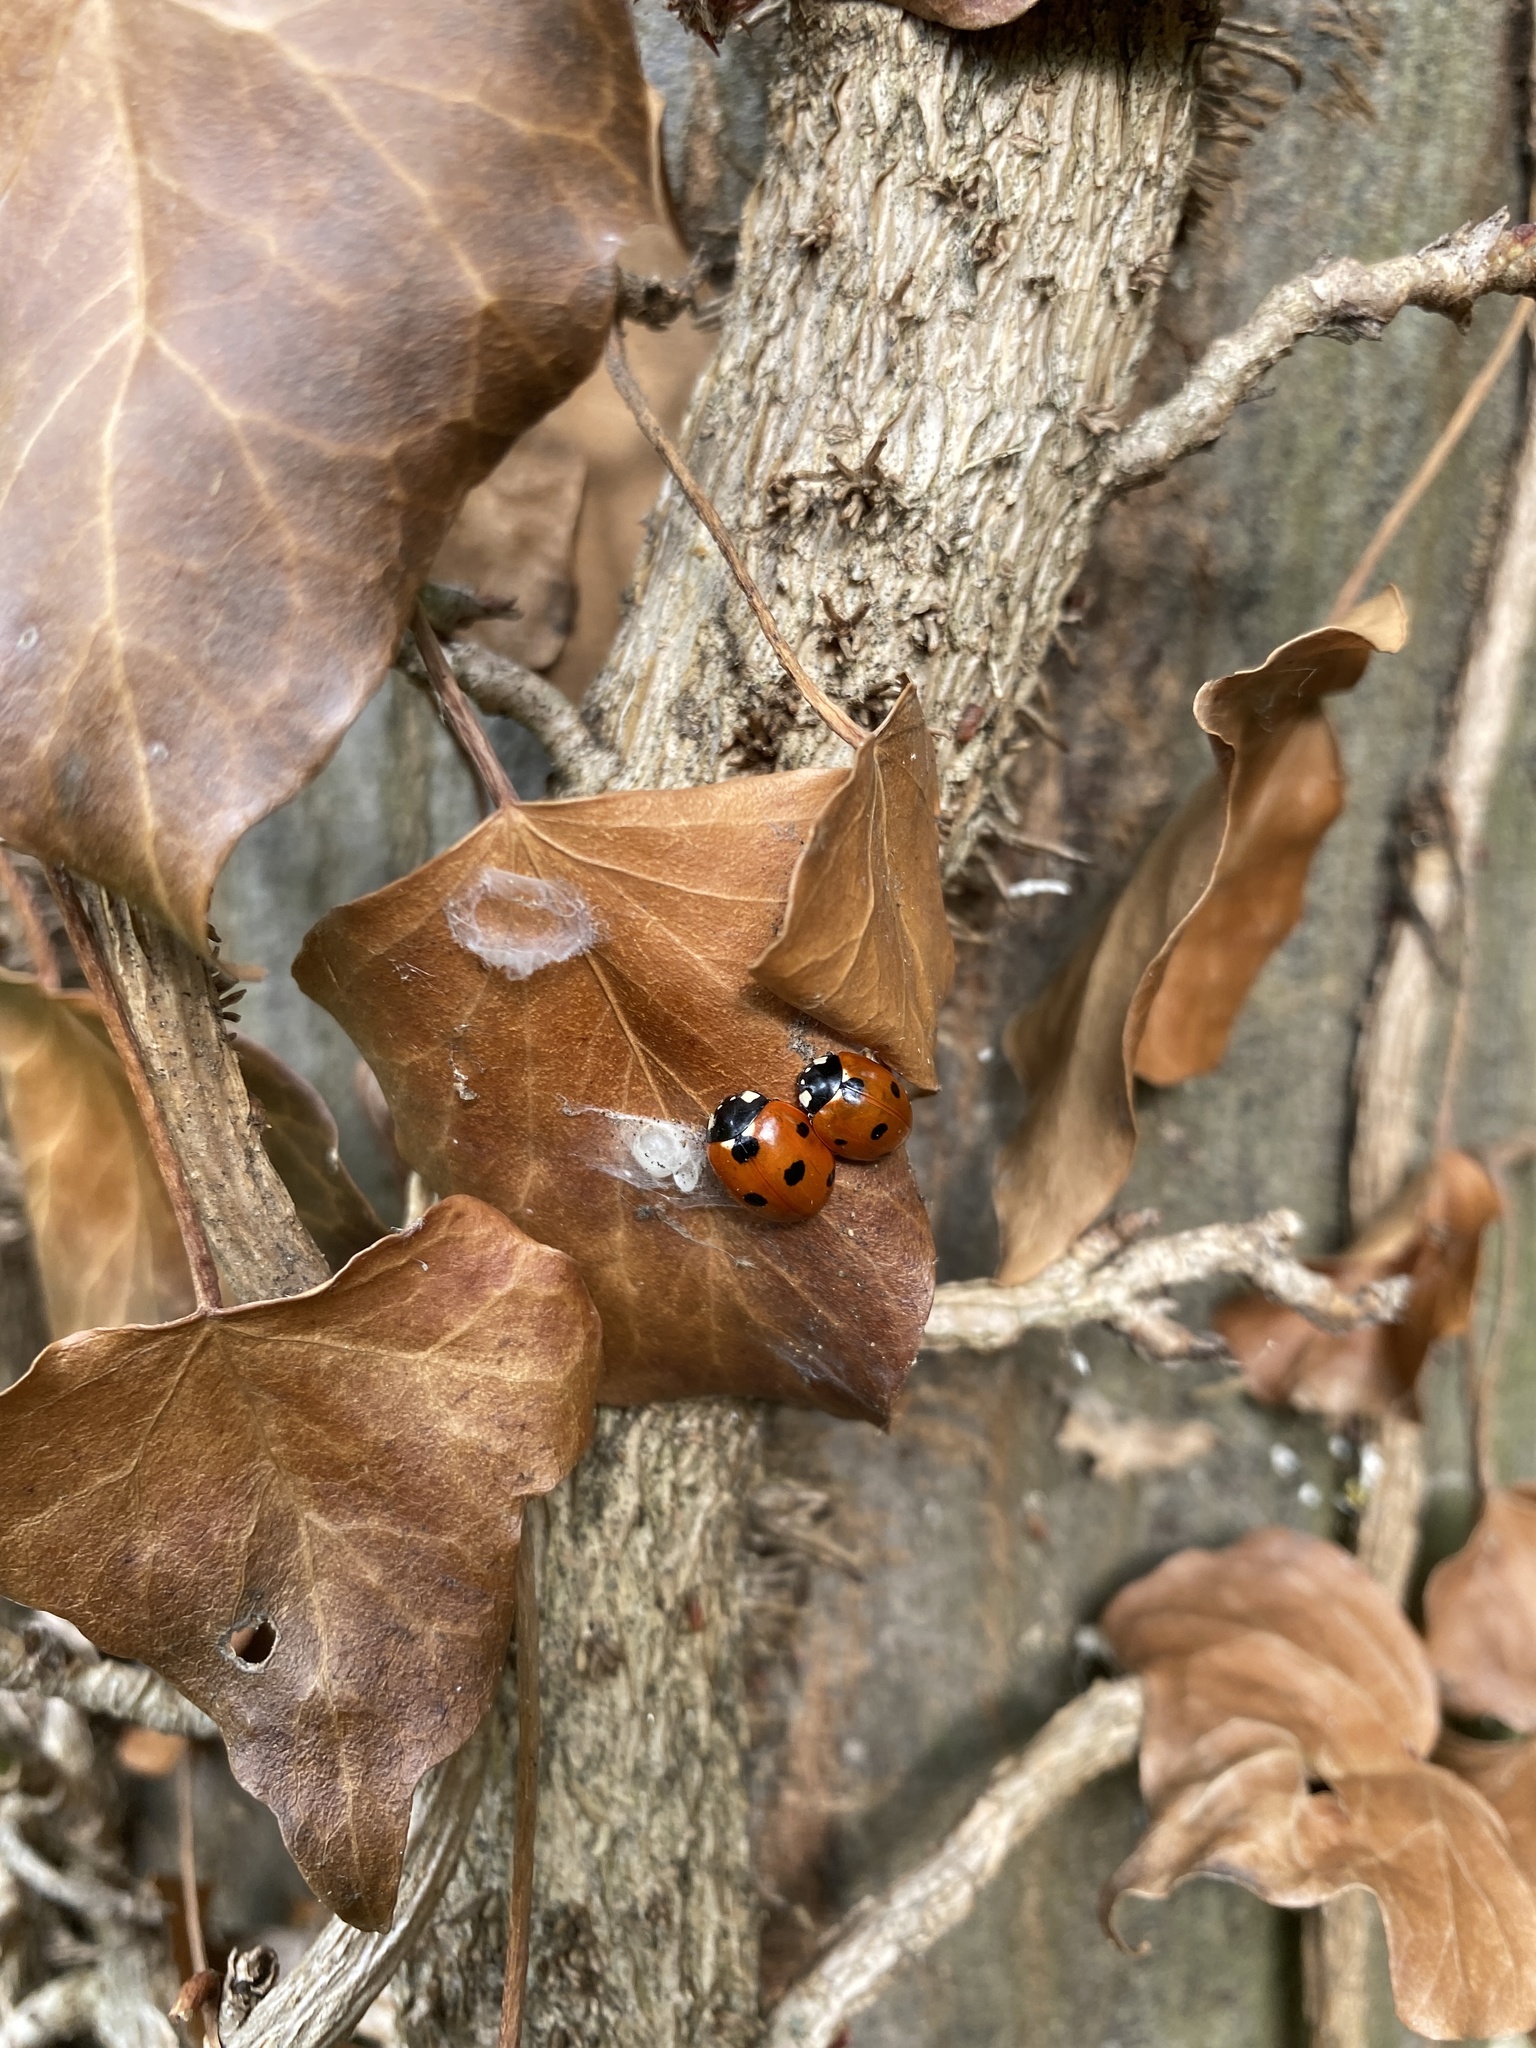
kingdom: Animalia
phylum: Arthropoda
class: Insecta
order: Coleoptera
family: Coccinellidae
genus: Coccinella
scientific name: Coccinella septempunctata
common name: Sevenspotted lady beetle
